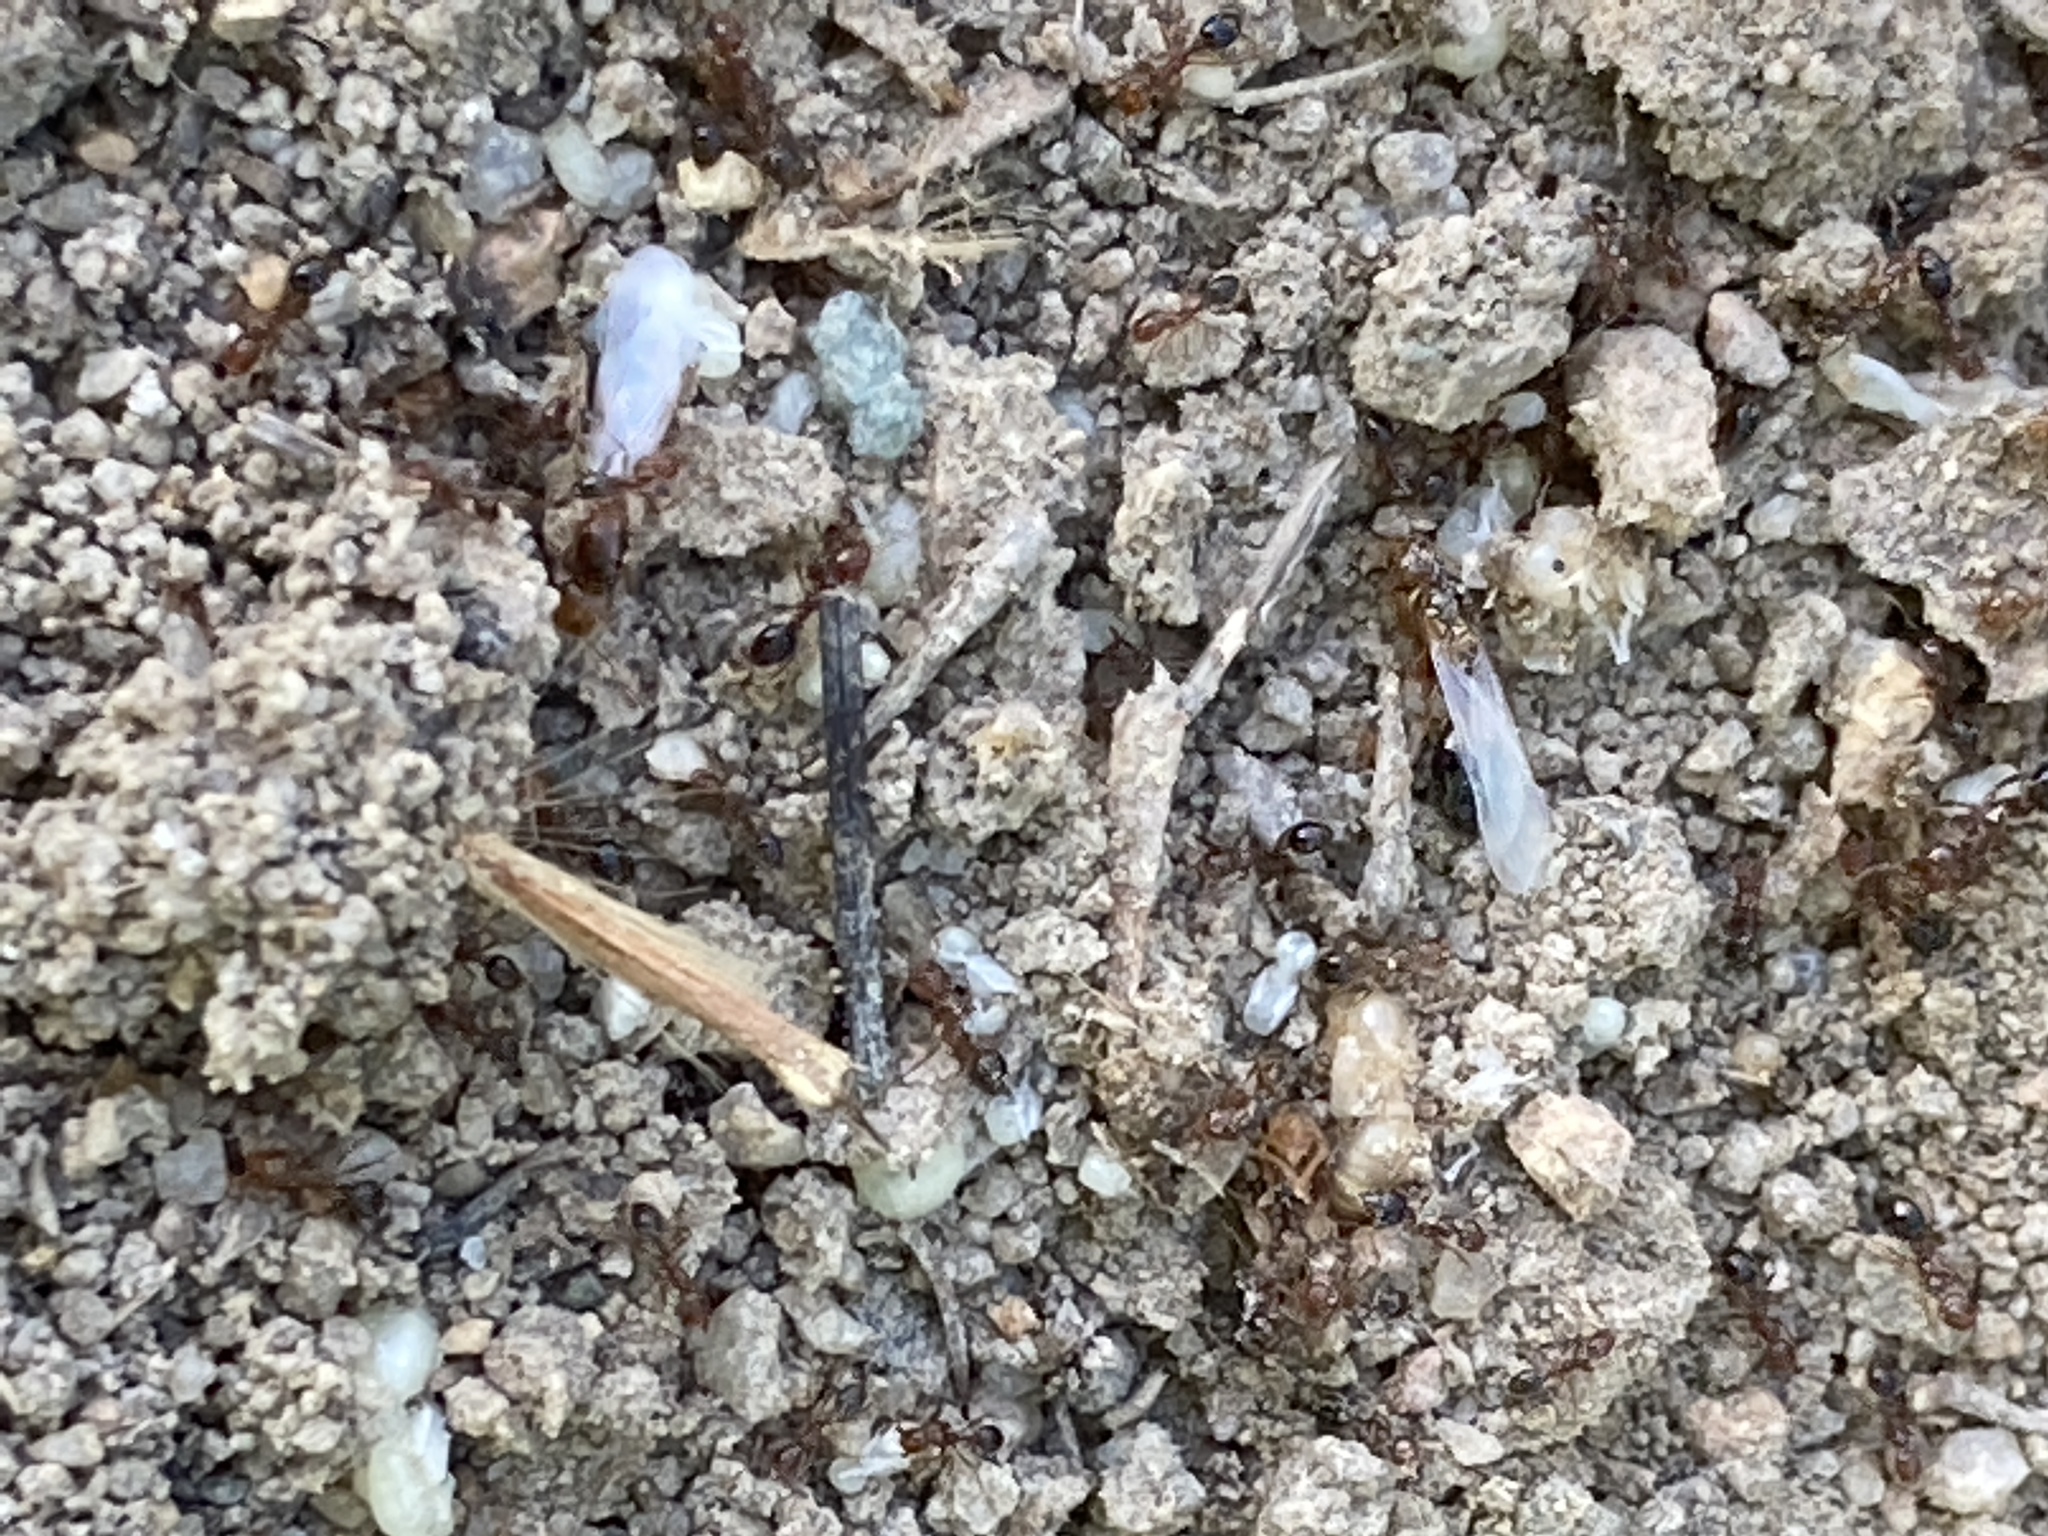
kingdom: Animalia
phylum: Arthropoda
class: Insecta
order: Hymenoptera
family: Formicidae
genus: Solenopsis
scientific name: Solenopsis invicta
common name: Red imported fire ant
